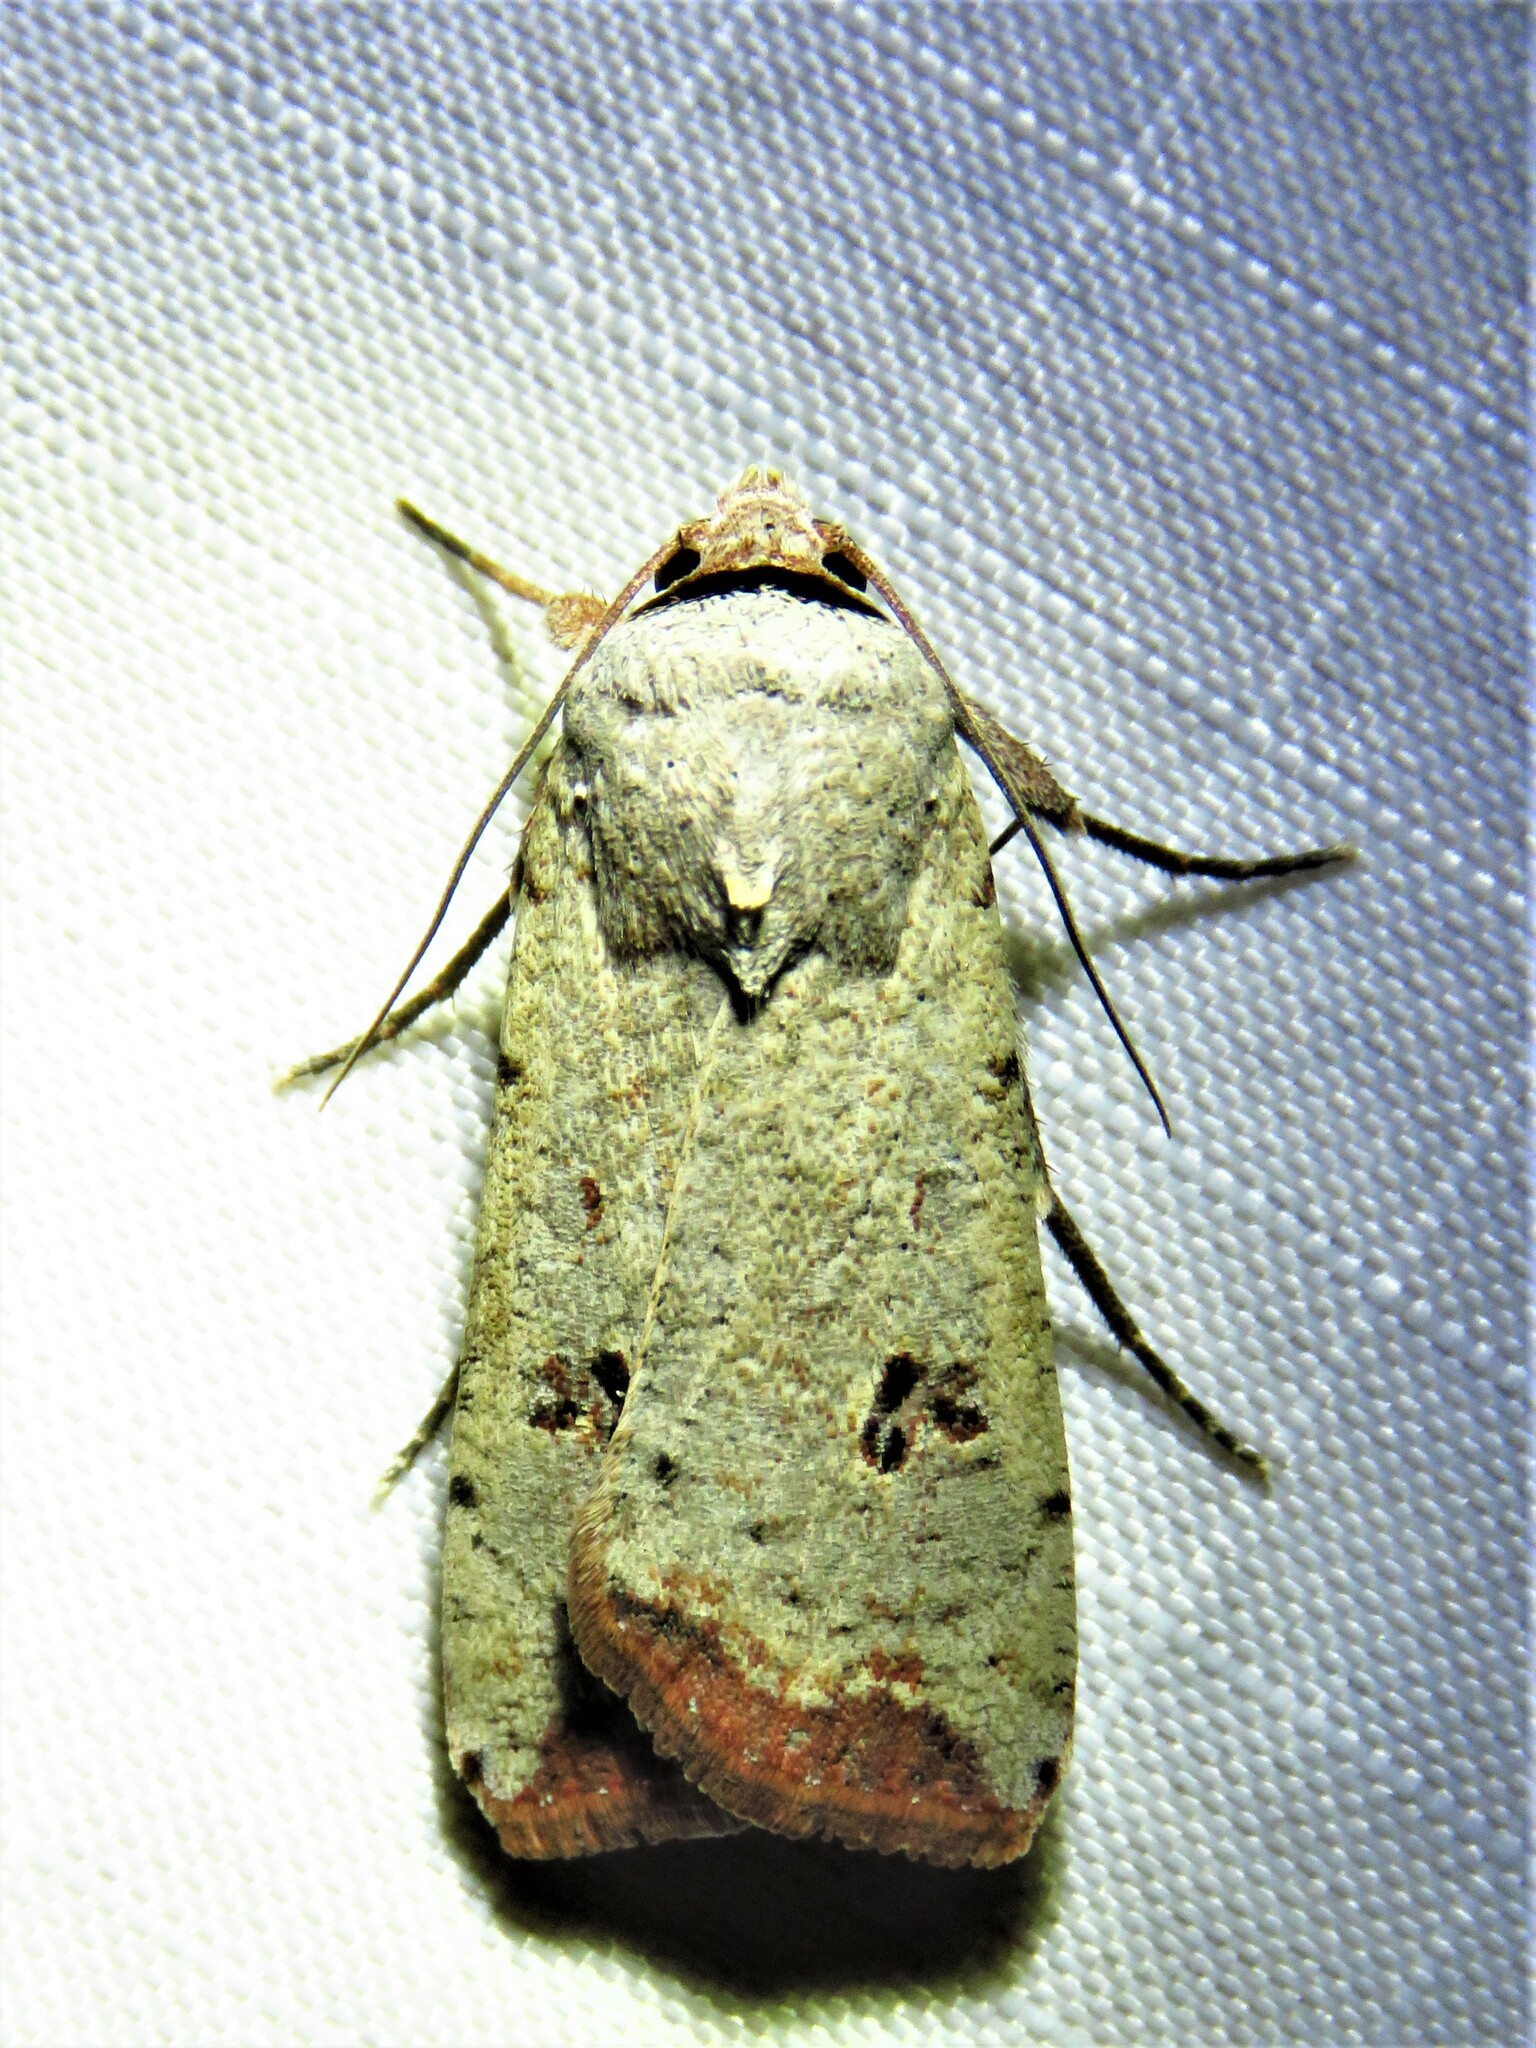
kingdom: Animalia
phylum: Arthropoda
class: Insecta
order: Lepidoptera
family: Noctuidae
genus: Anicla
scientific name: Anicla infecta
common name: Green cutworm
